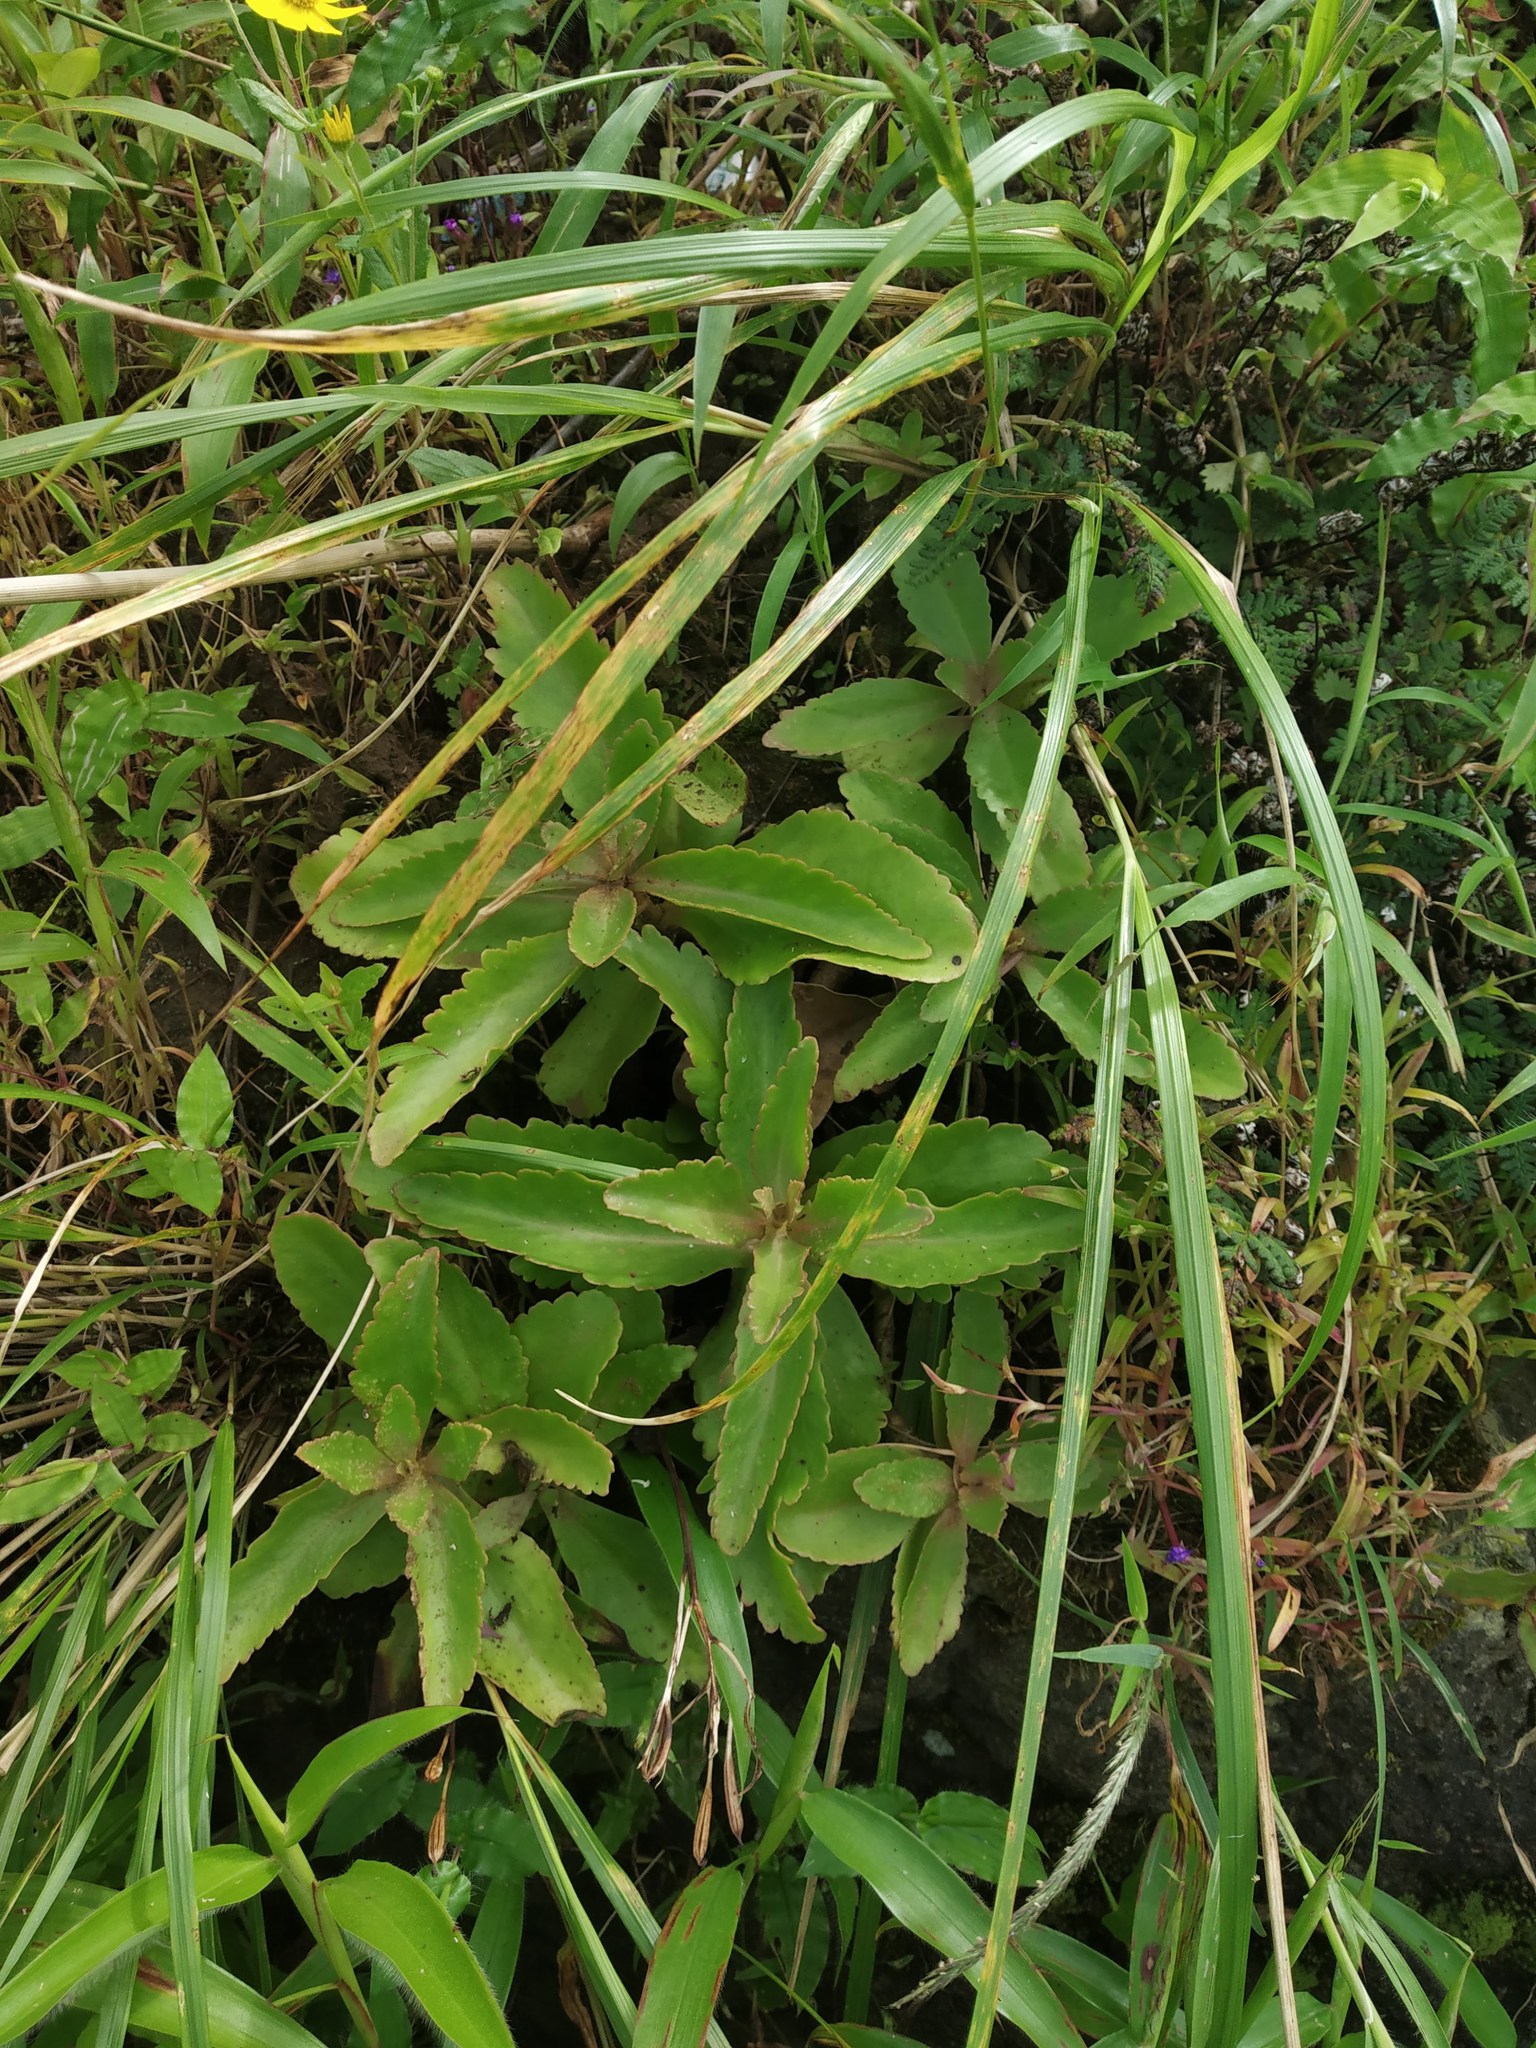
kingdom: Plantae
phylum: Tracheophyta
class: Magnoliopsida
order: Saxifragales
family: Crassulaceae
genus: Kalanchoe
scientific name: Kalanchoe olivacea
